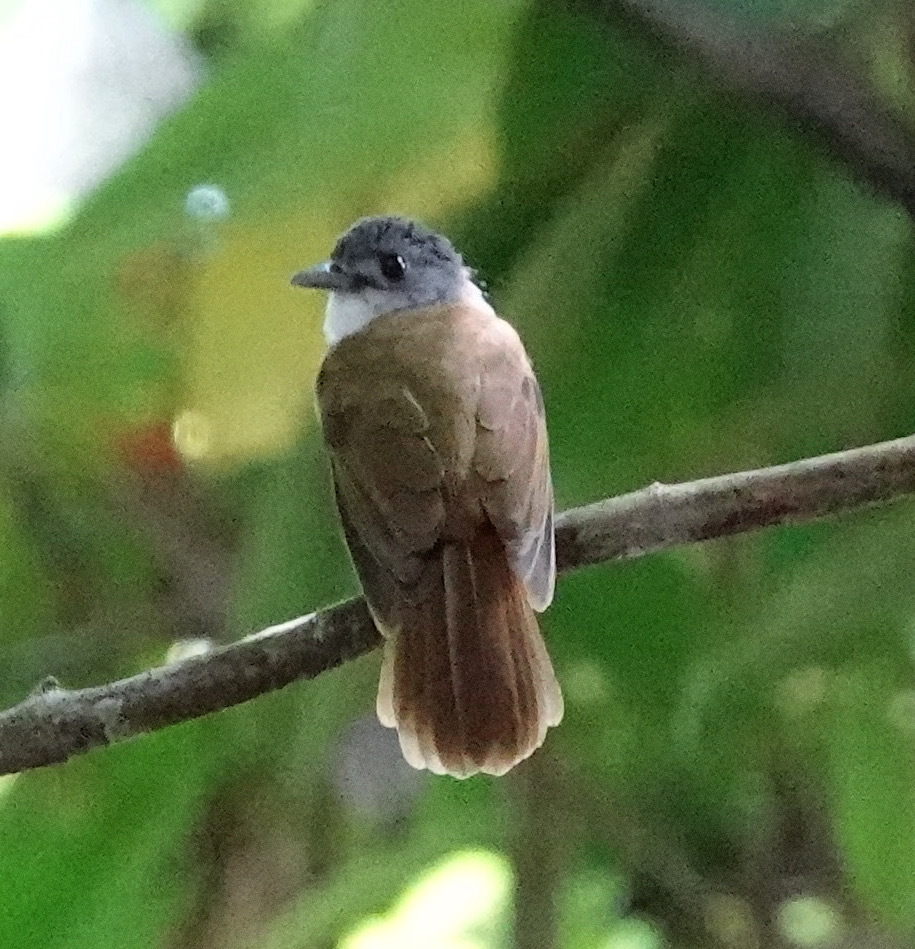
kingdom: Animalia
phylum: Chordata
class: Aves
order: Passeriformes
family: Pycnonotidae
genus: Alophoixus
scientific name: Alophoixus phaeocephalus
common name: Yellow-bellied bulbul
